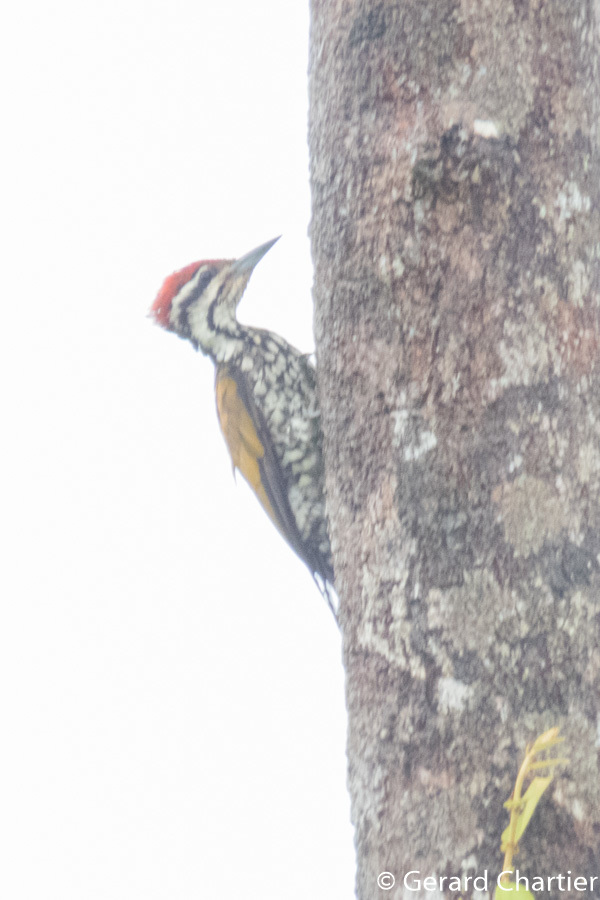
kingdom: Animalia
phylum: Chordata
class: Aves
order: Piciformes
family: Picidae
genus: Dinopium
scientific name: Dinopium javanense
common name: Common flameback
